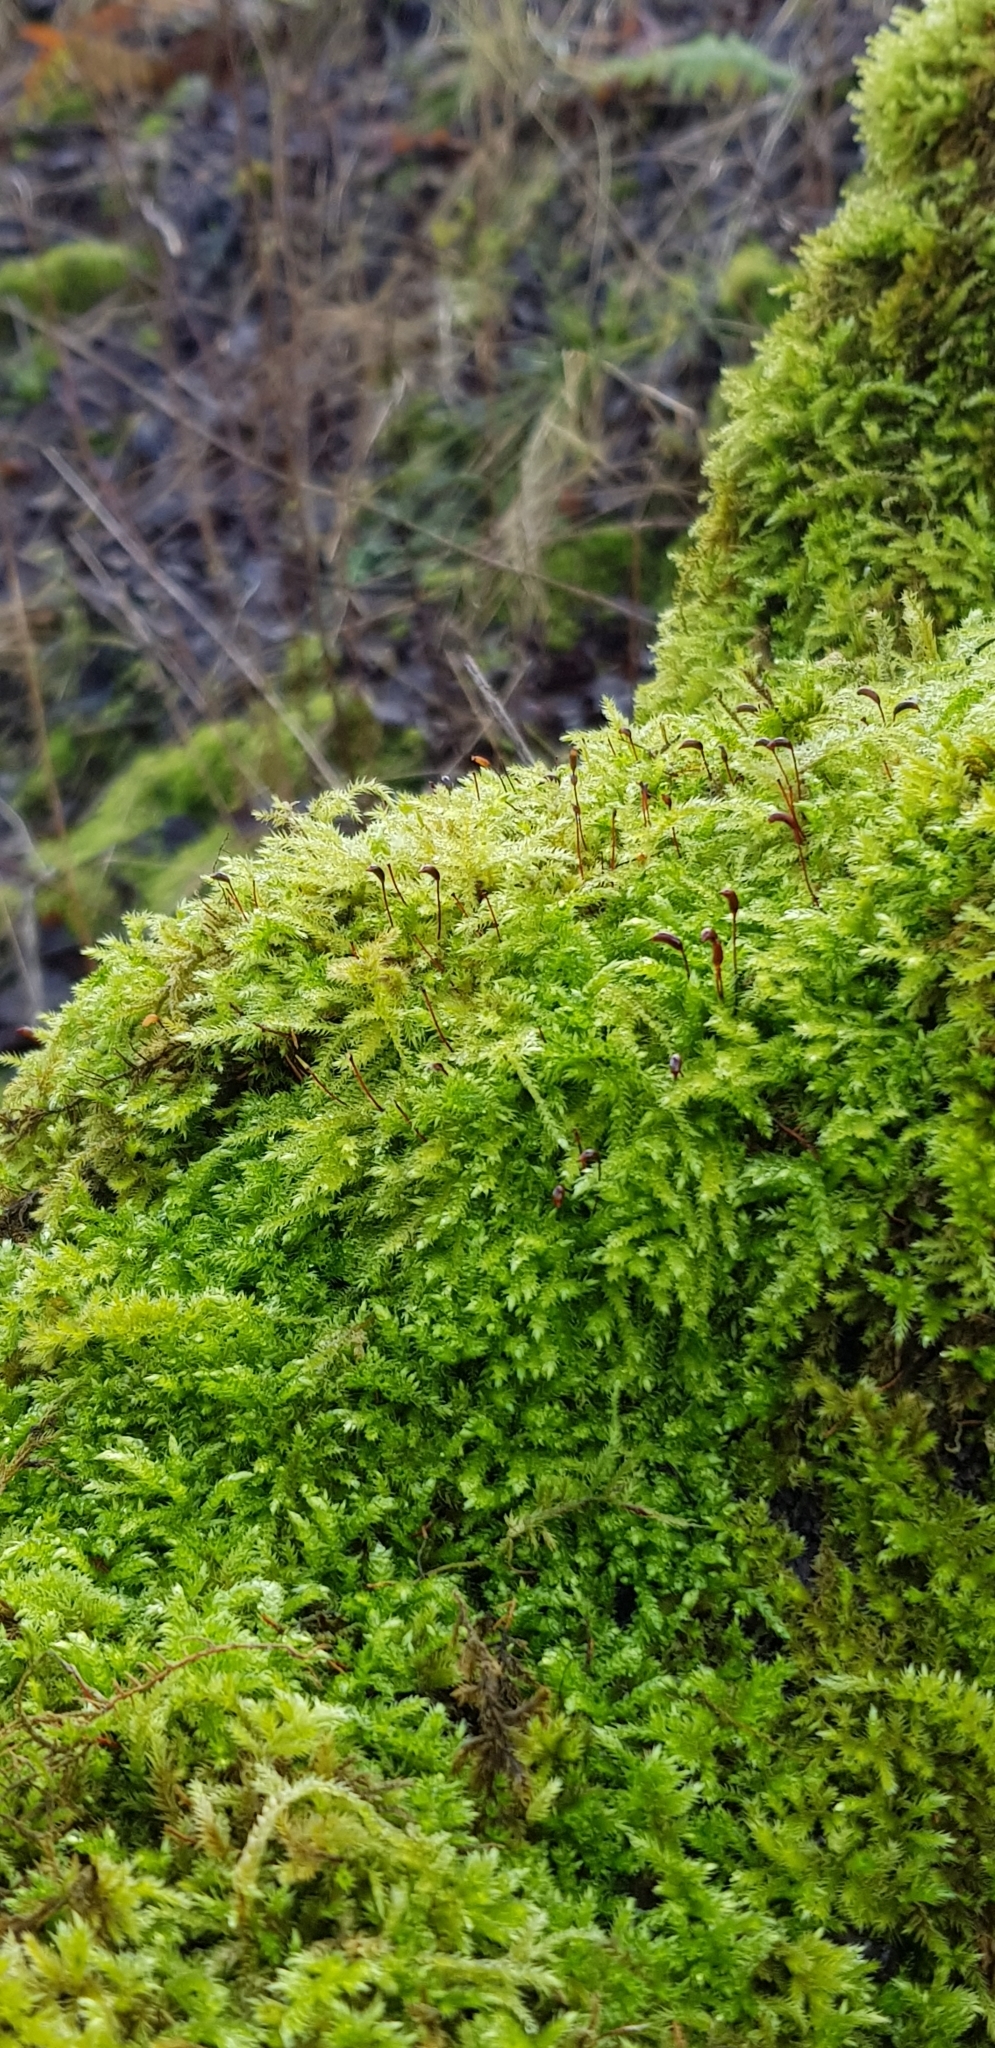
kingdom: Plantae
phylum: Bryophyta
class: Bryopsida
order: Hypnales
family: Cryphaeaceae
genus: Cryphaea
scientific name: Cryphaea heteromalla
